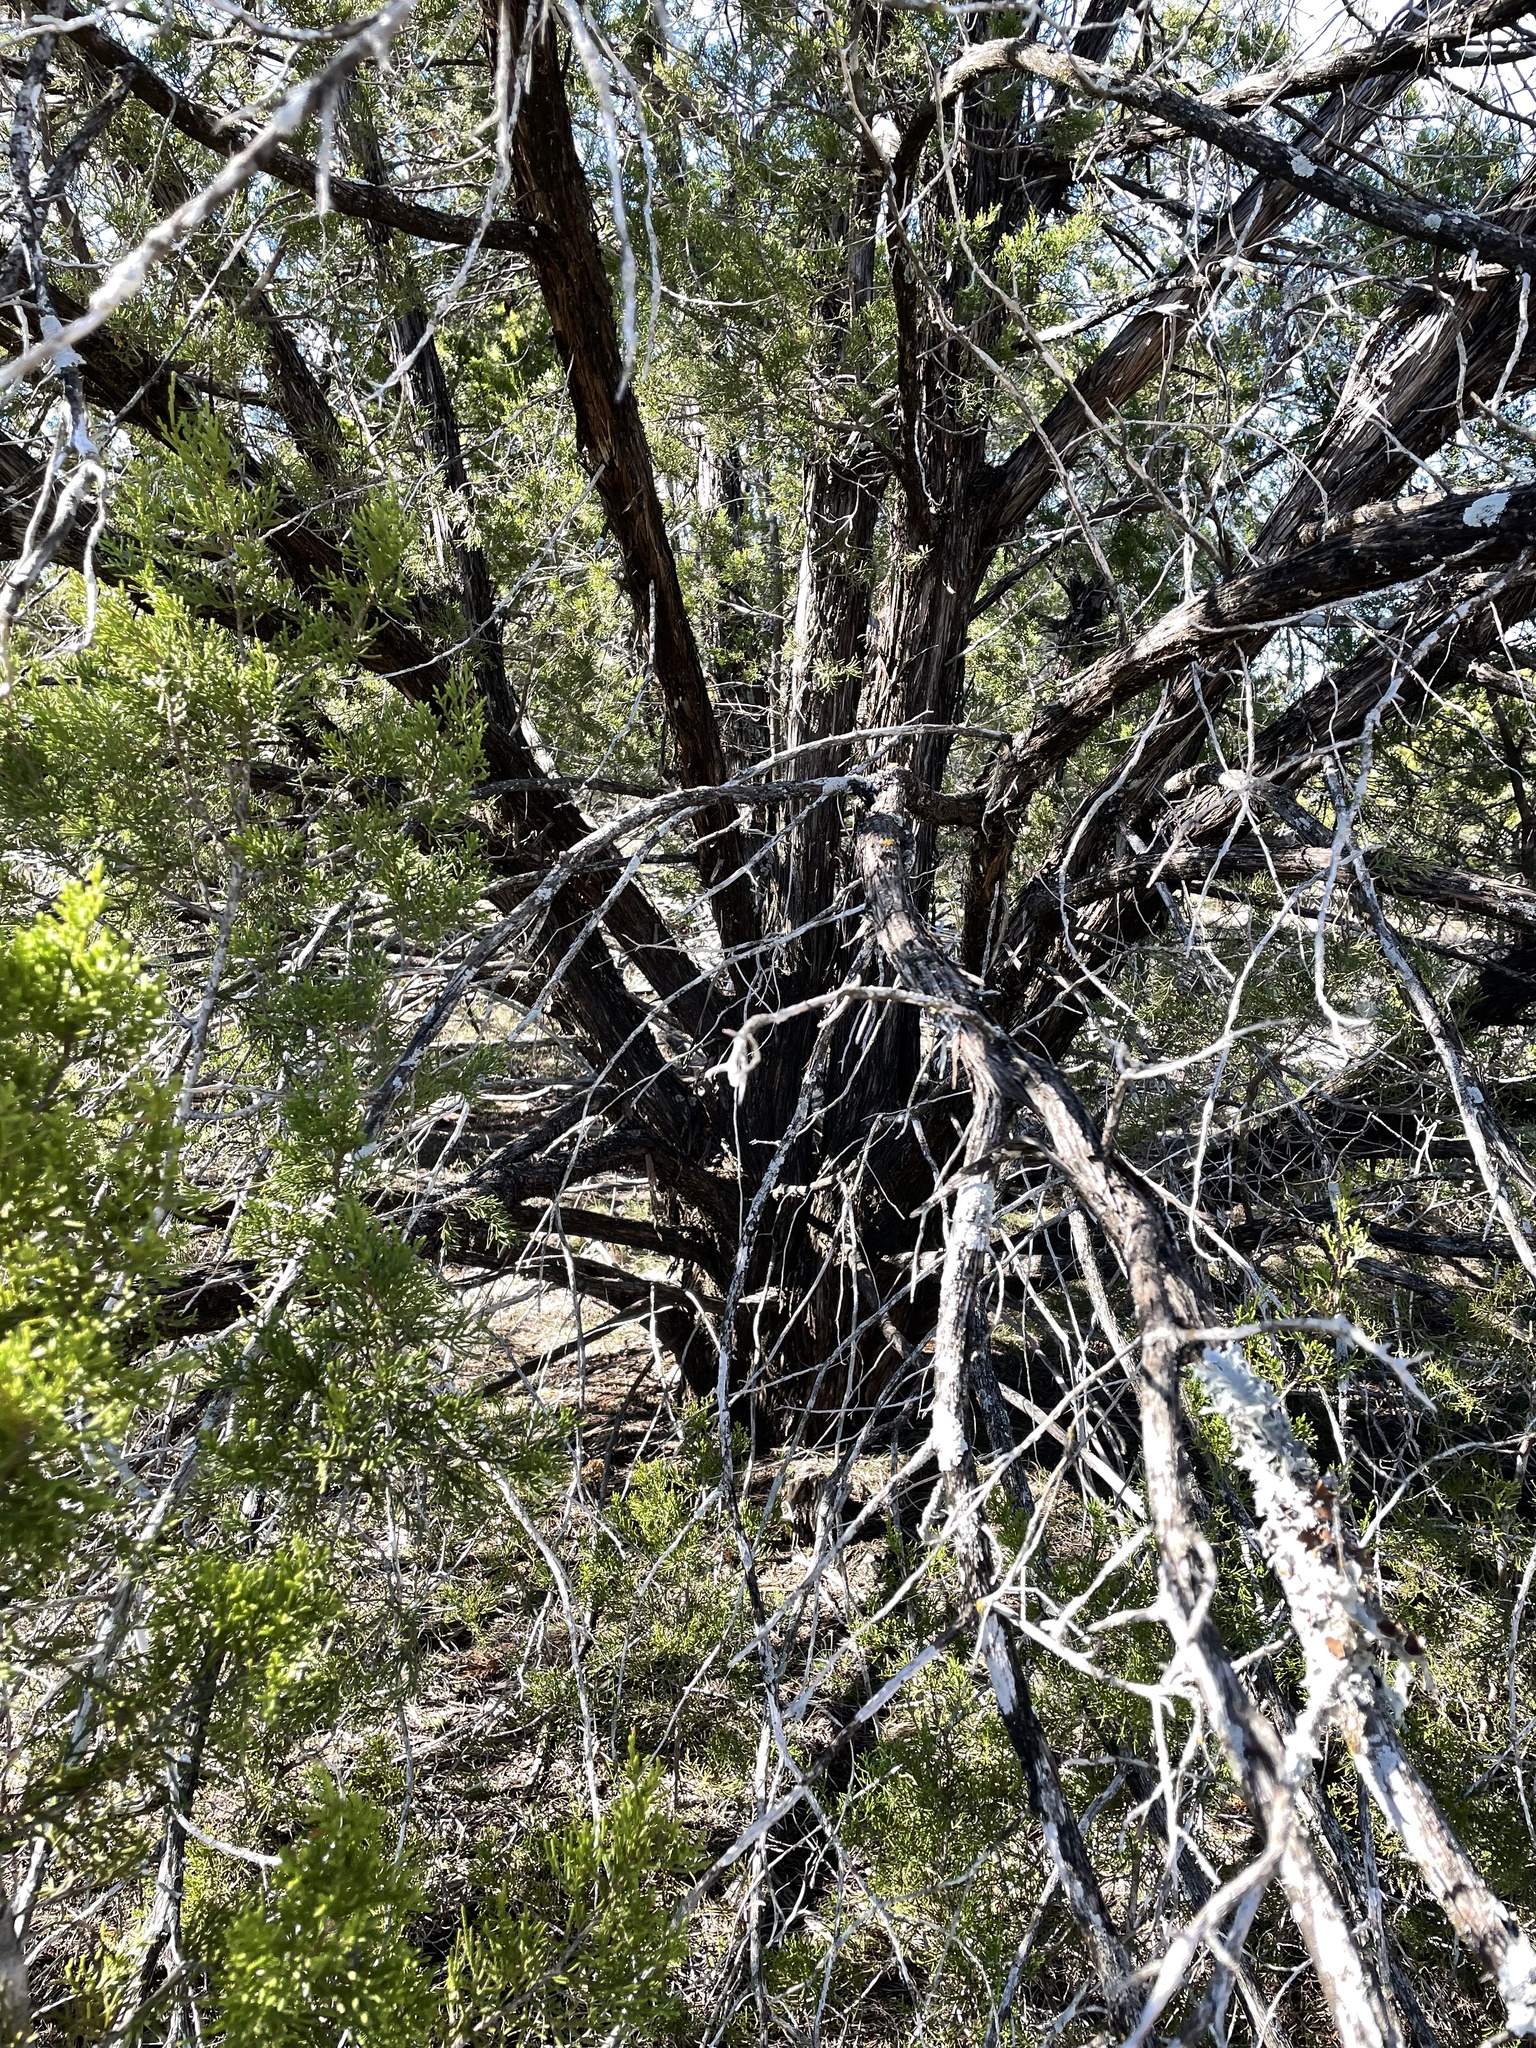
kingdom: Plantae
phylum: Tracheophyta
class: Pinopsida
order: Pinales
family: Cupressaceae
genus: Juniperus
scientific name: Juniperus ashei
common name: Mexican juniper
